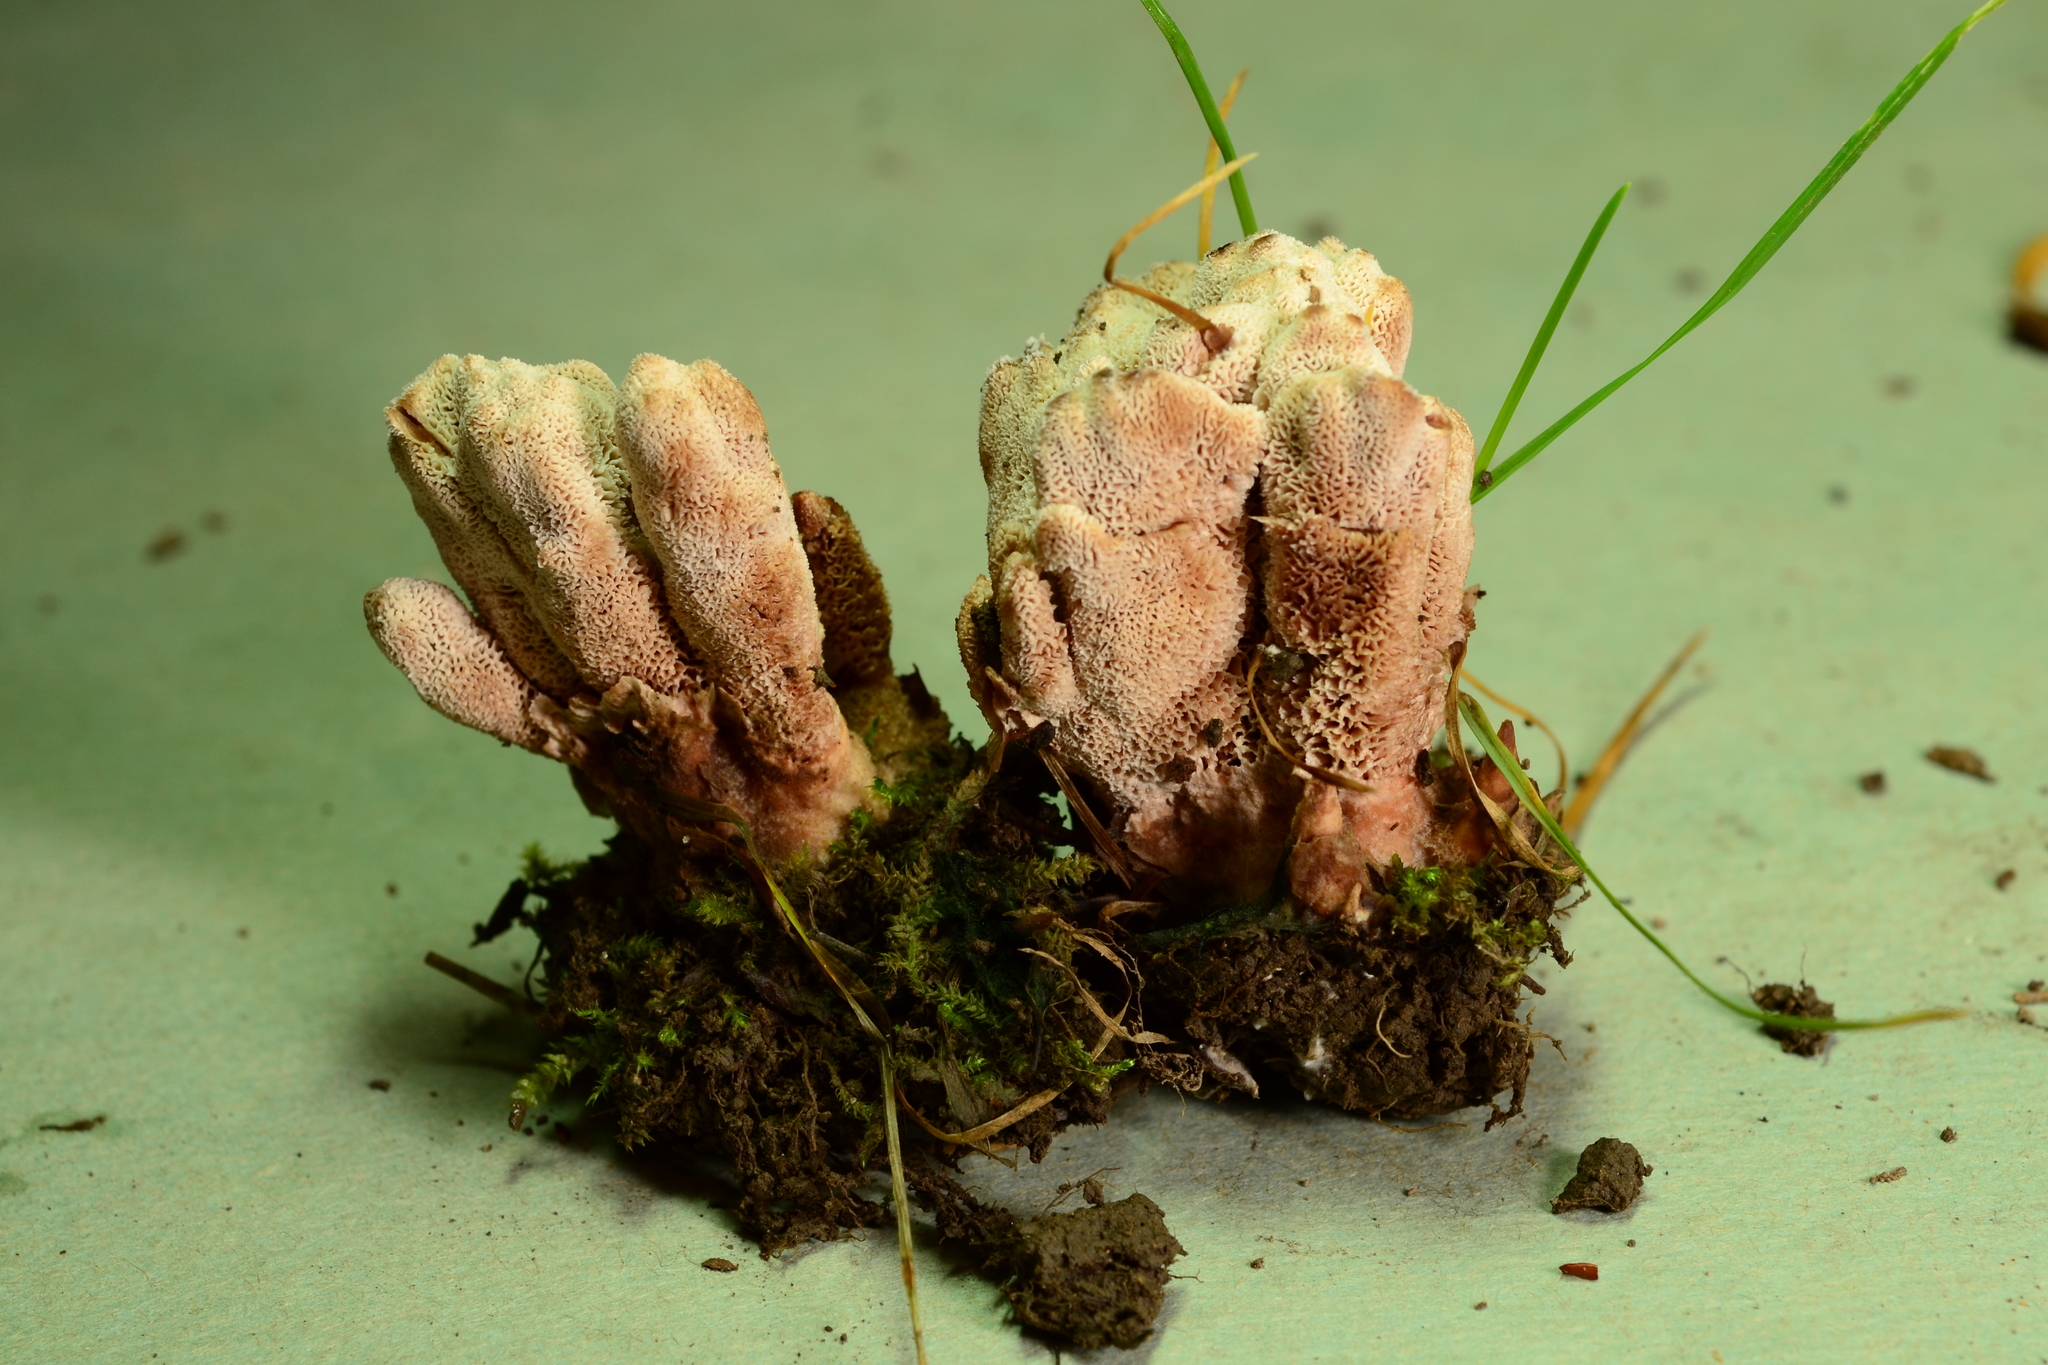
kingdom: Fungi
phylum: Basidiomycota
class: Agaricomycetes
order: Polyporales
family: Podoscyphaceae
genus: Abortiporus
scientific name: Abortiporus biennis
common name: Blushing rosette
